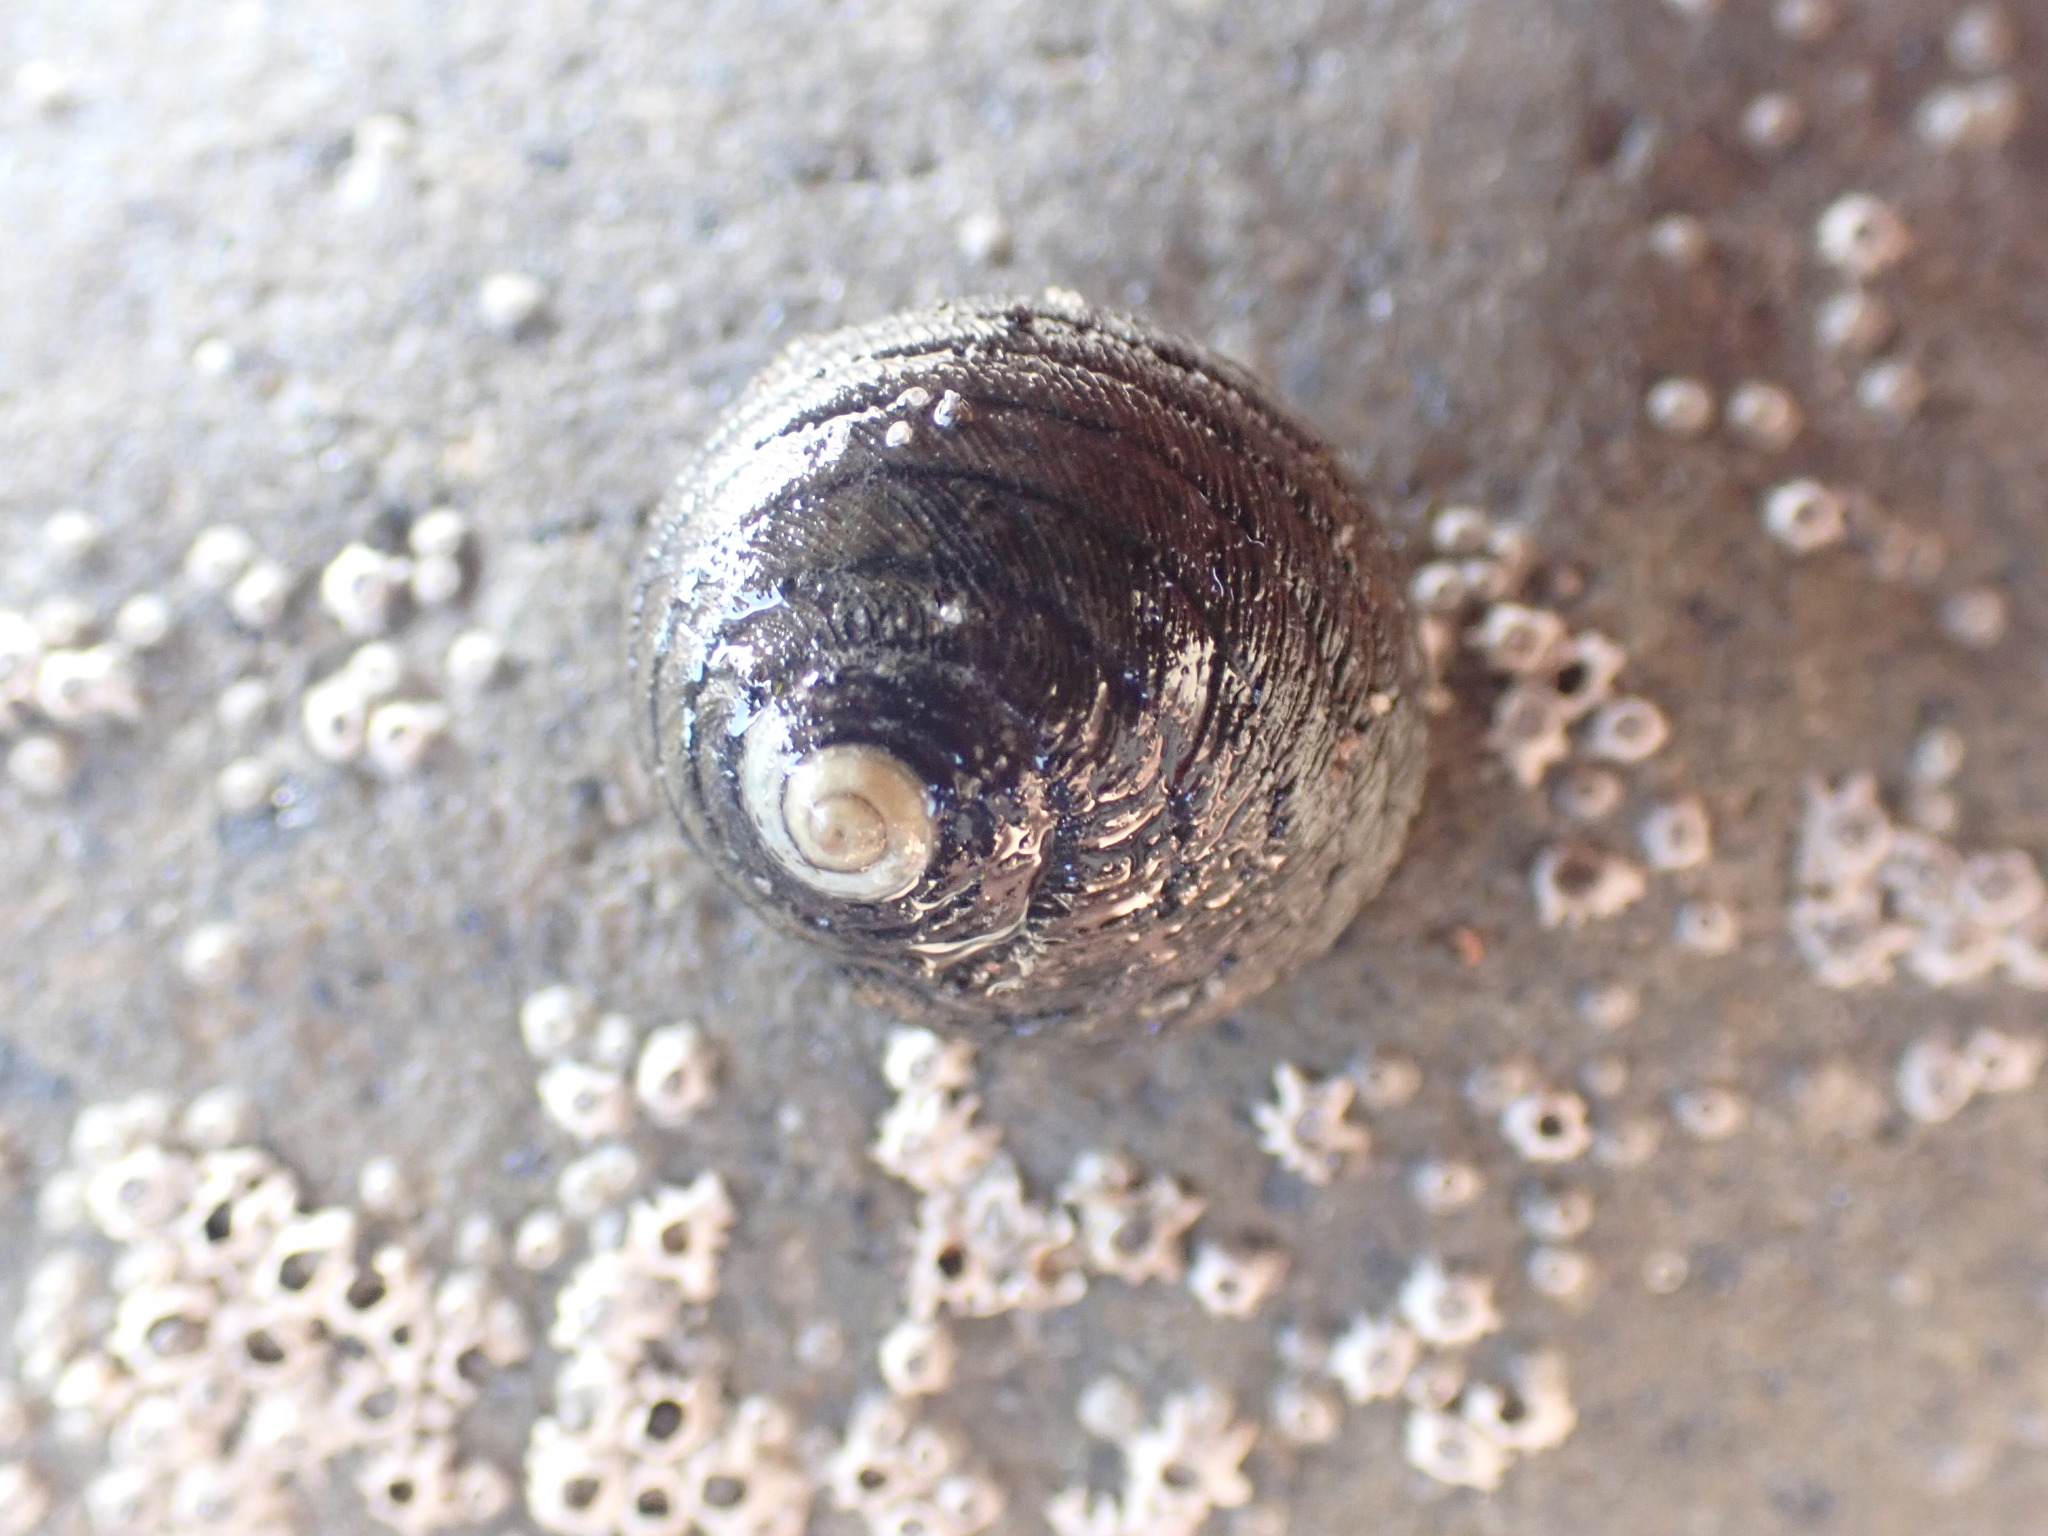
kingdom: Animalia
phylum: Mollusca
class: Gastropoda
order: Trochida
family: Trochidae
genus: Diloma
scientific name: Diloma aethiops
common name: Scorched monodont
